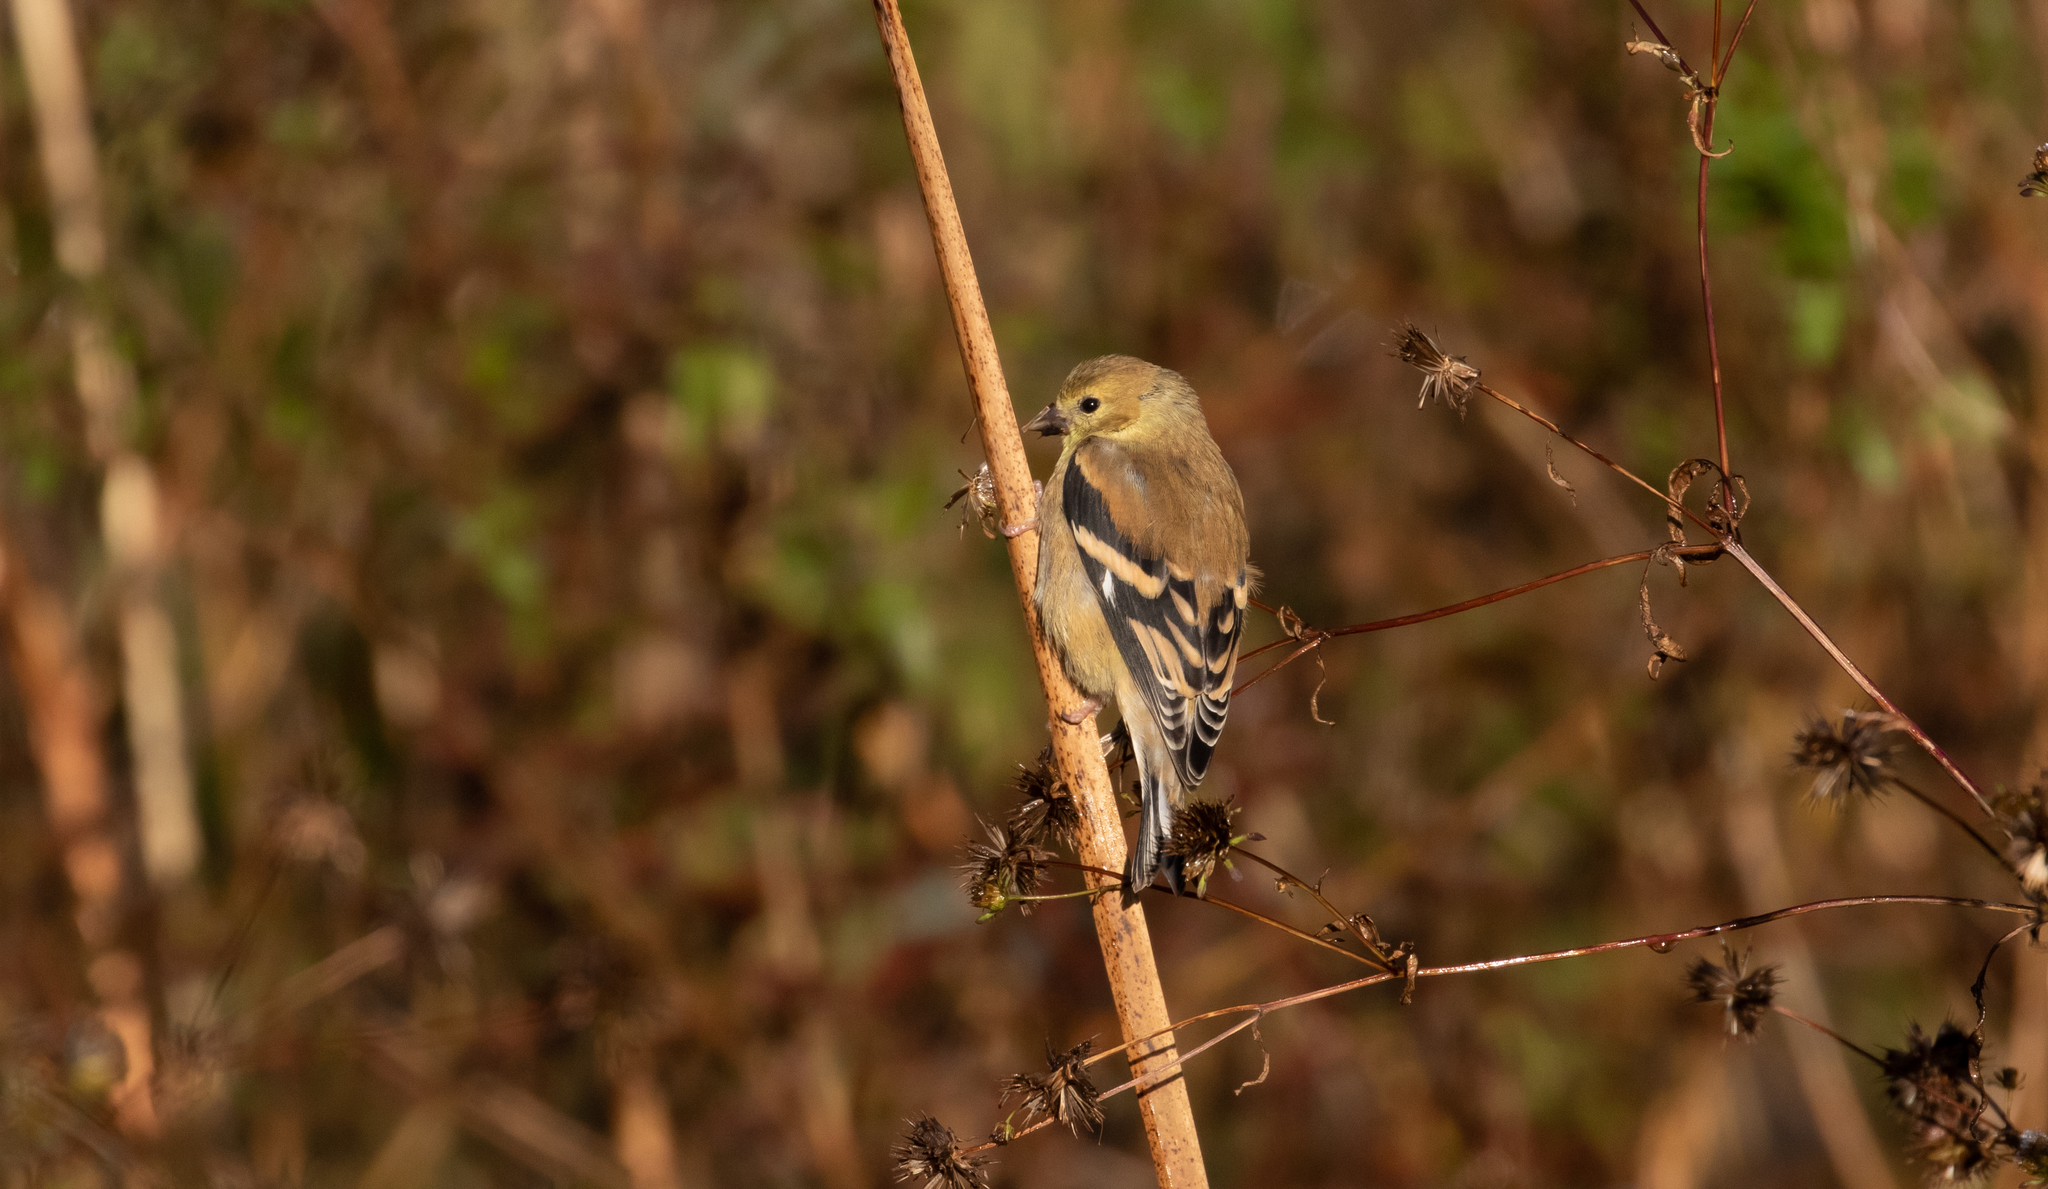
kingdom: Animalia
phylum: Chordata
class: Aves
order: Passeriformes
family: Fringillidae
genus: Spinus
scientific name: Spinus tristis
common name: American goldfinch
